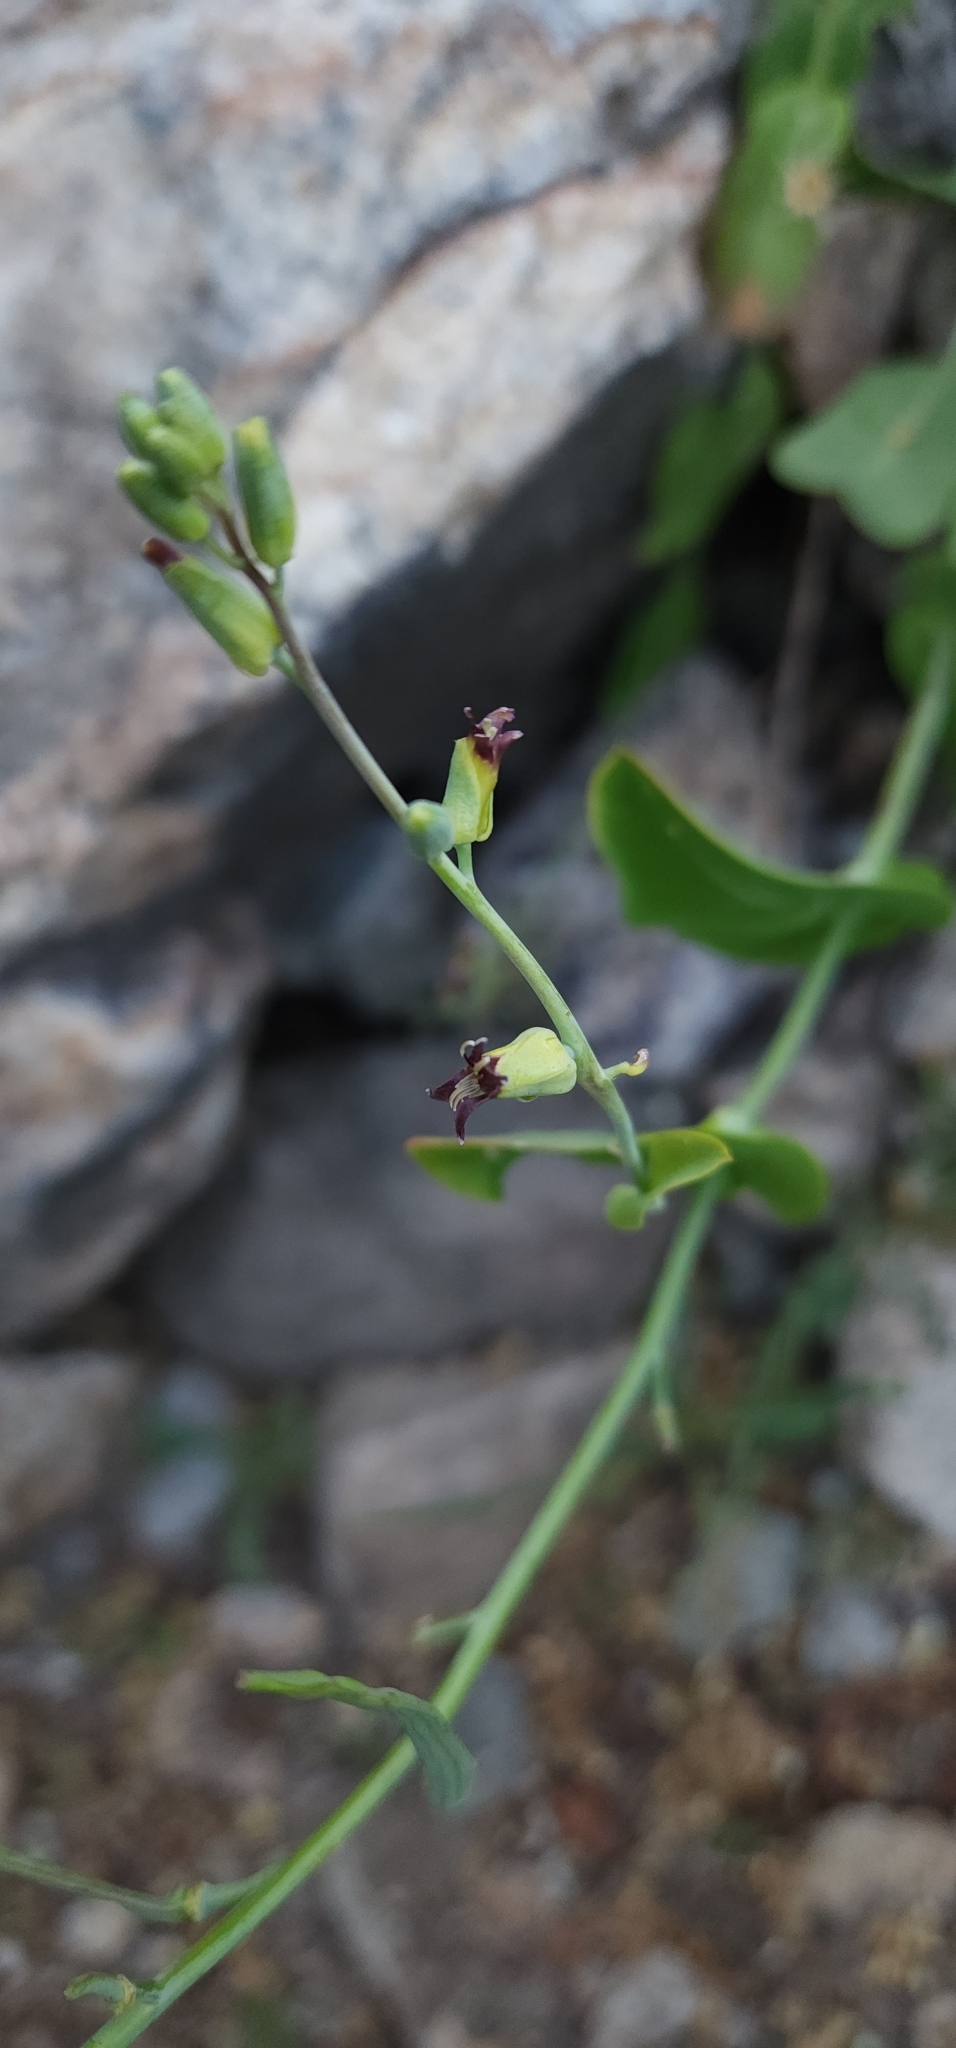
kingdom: Plantae
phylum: Tracheophyta
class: Magnoliopsida
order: Brassicales
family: Brassicaceae
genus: Streptanthus
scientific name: Streptanthus cordatus
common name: Heart-leaf jewel-flower
